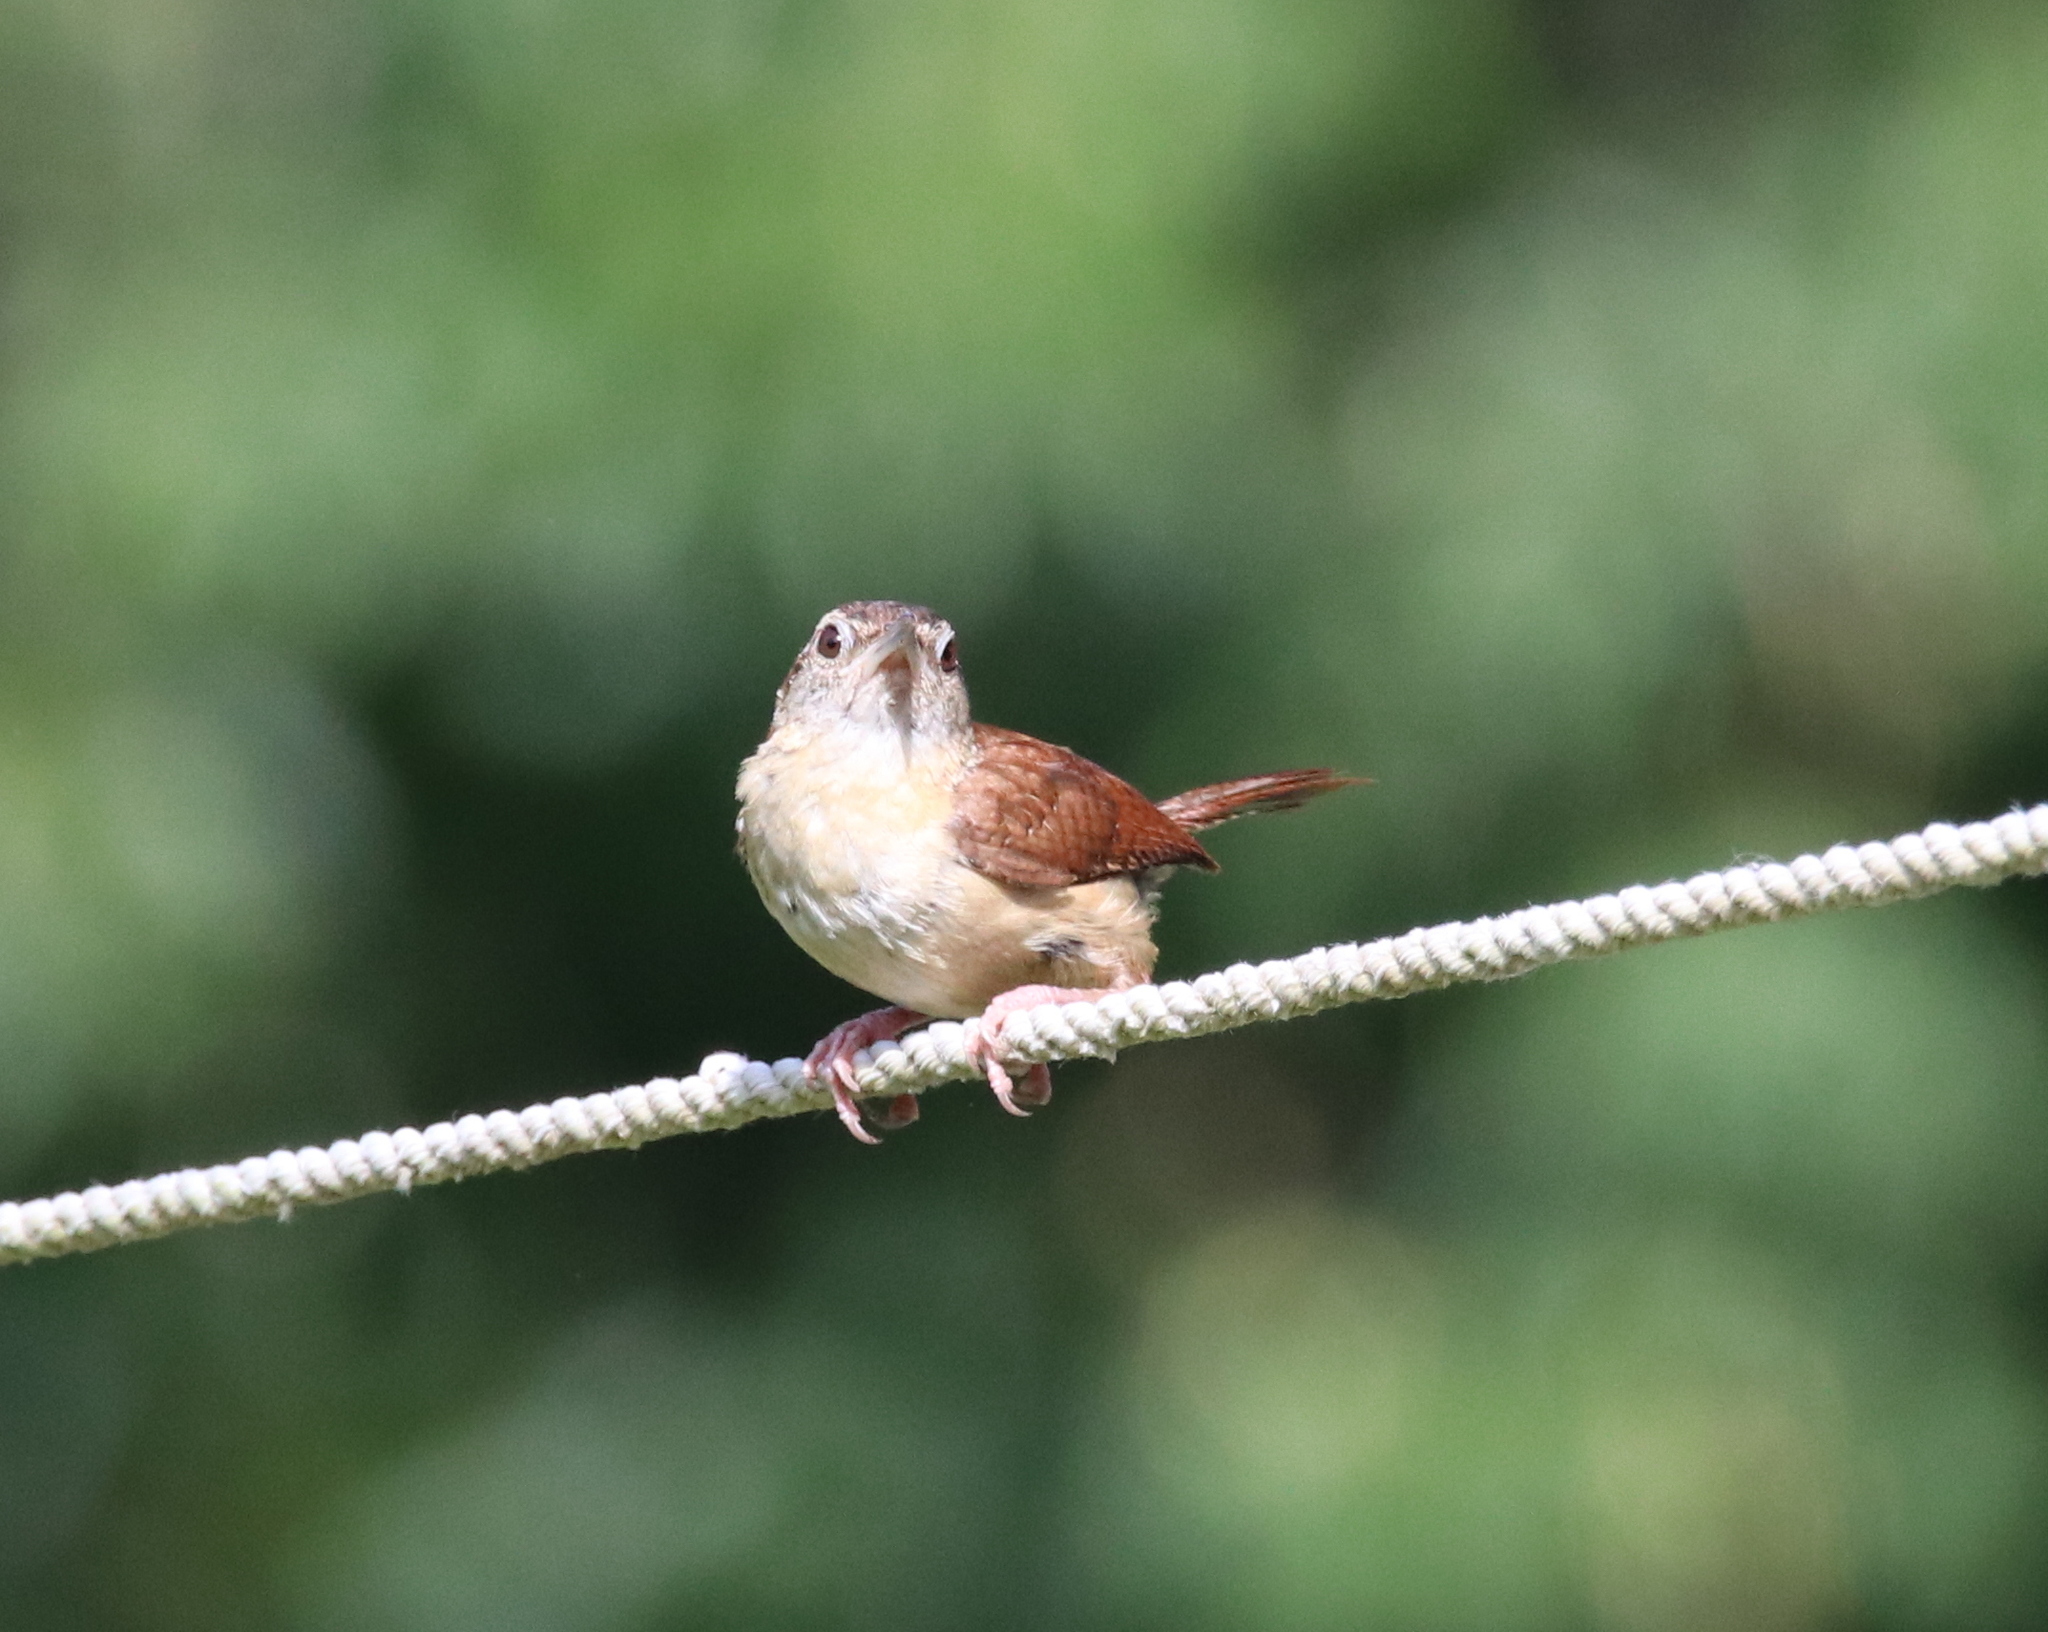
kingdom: Animalia
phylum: Chordata
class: Aves
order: Passeriformes
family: Troglodytidae
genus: Thryothorus
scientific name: Thryothorus ludovicianus
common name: Carolina wren
